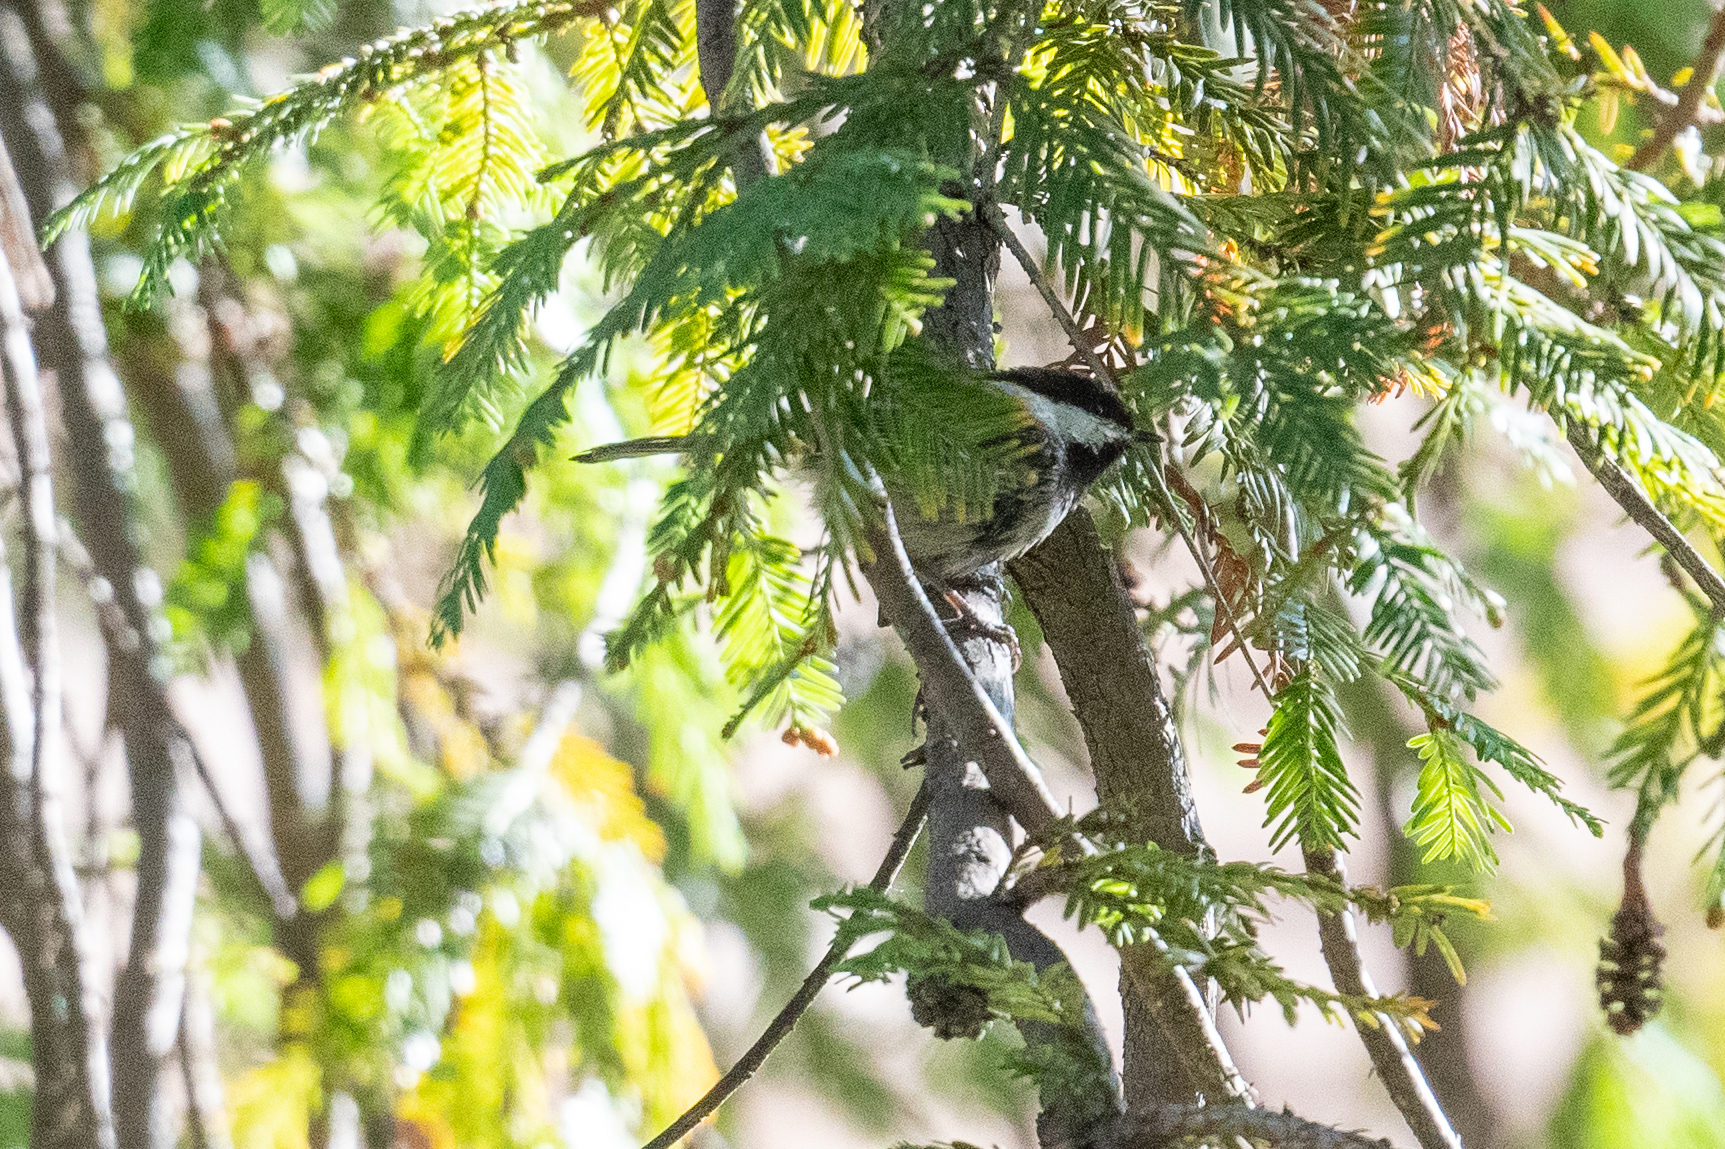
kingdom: Animalia
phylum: Chordata
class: Aves
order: Passeriformes
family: Paridae
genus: Poecile
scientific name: Poecile rufescens
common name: Chestnut-backed chickadee
